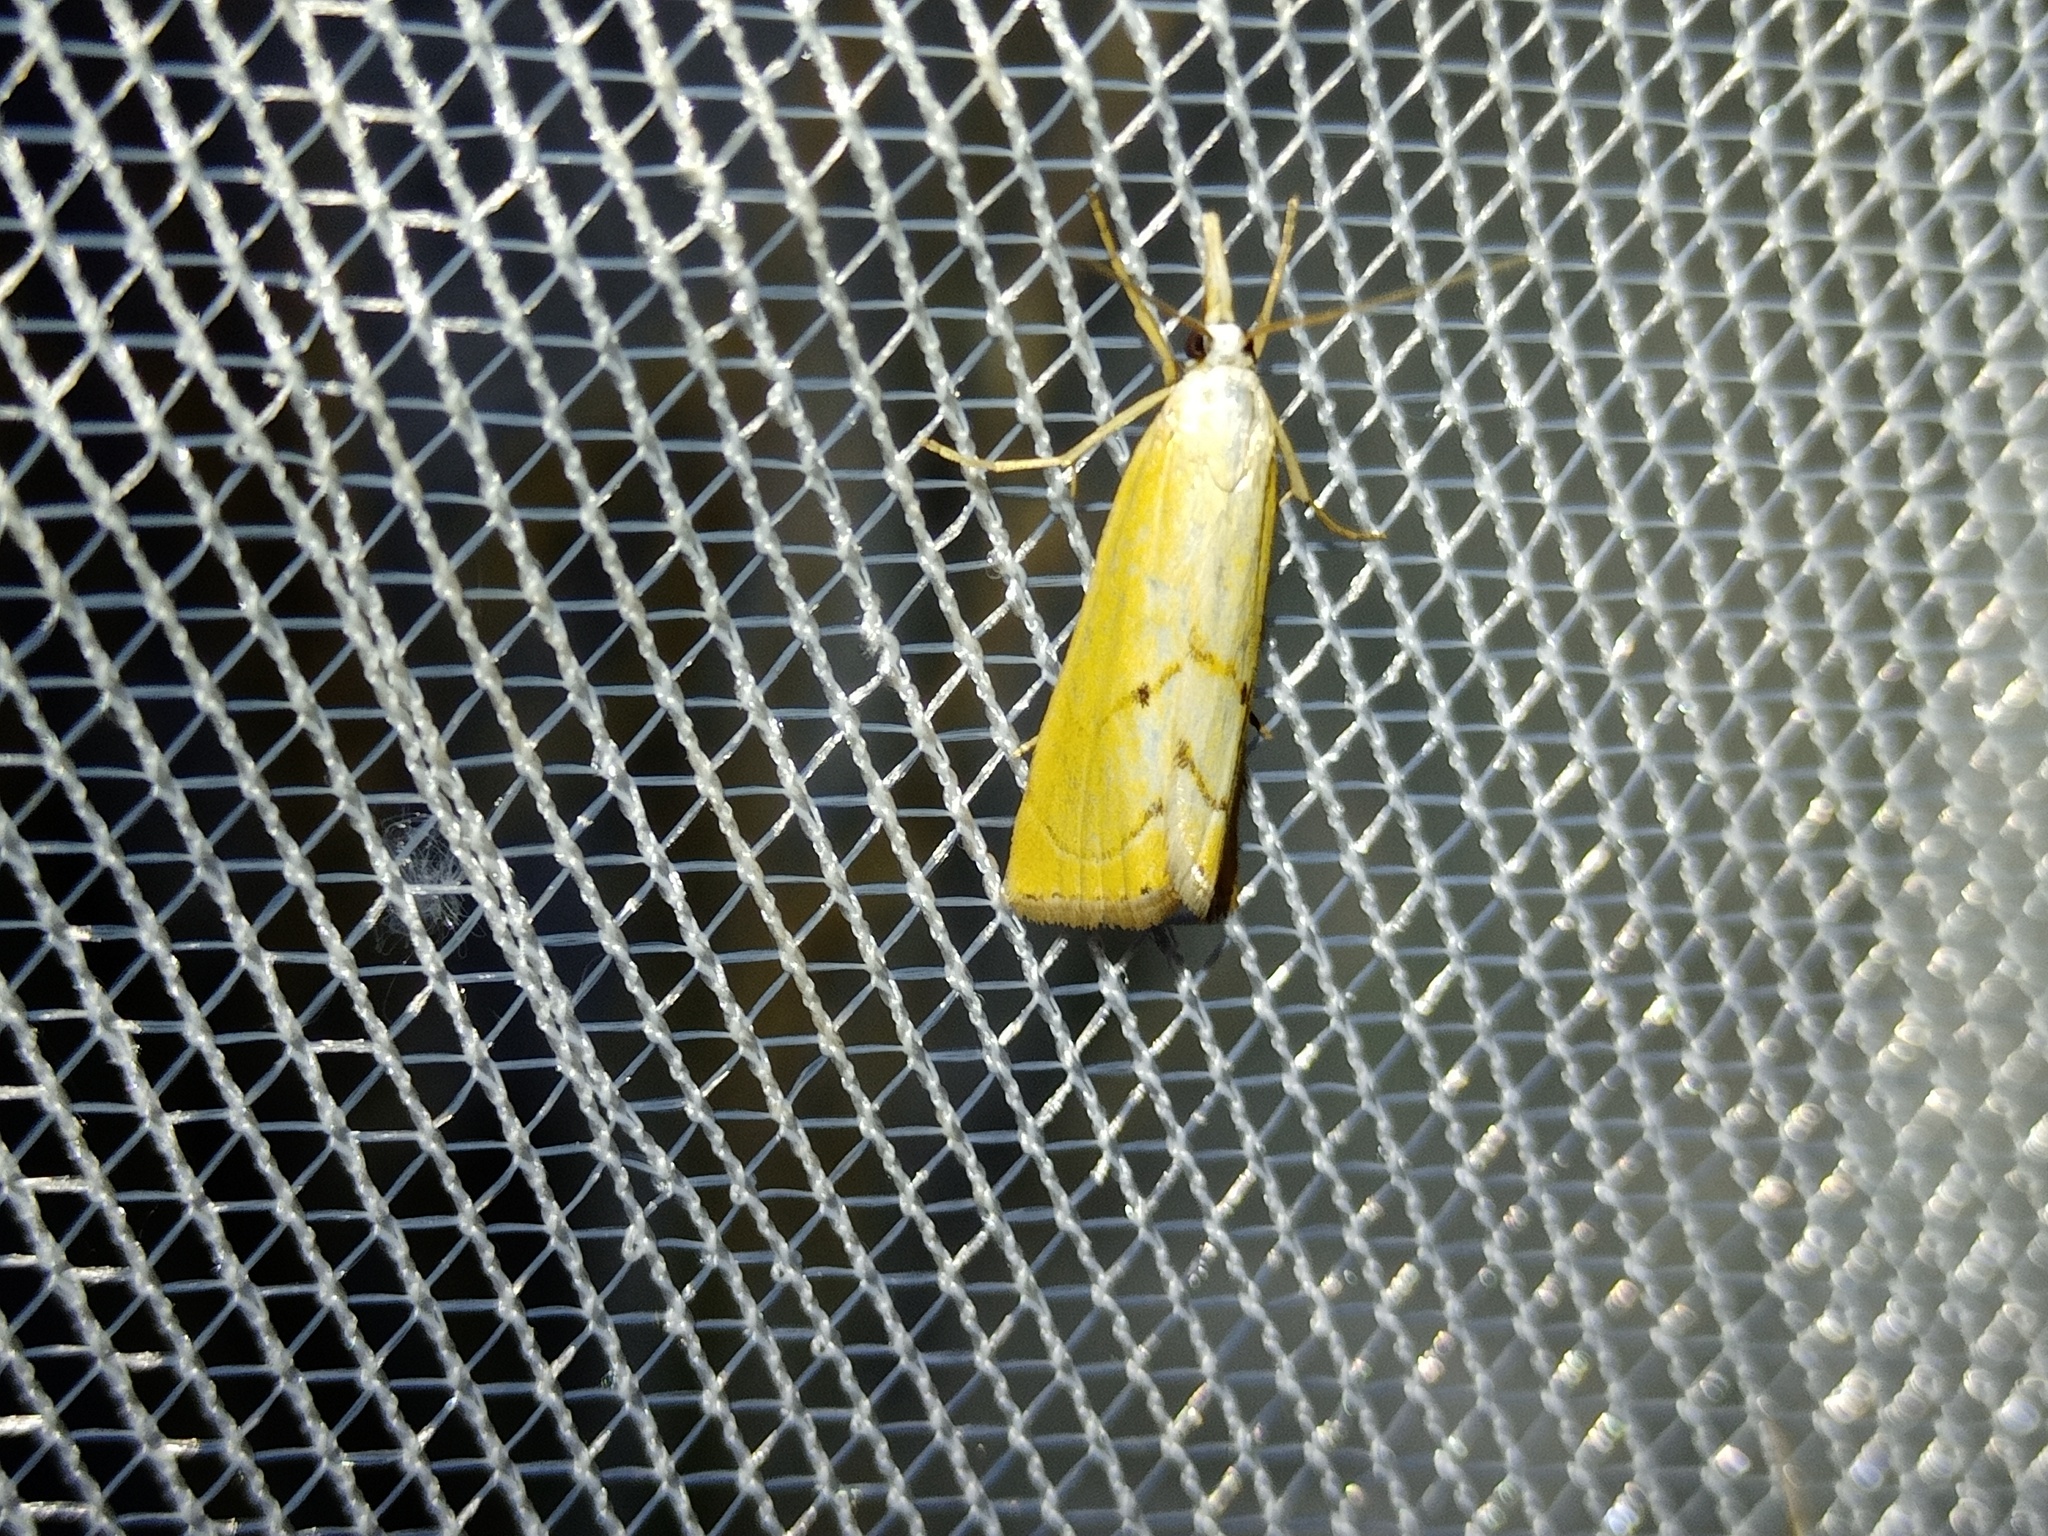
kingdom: Animalia
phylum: Arthropoda
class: Insecta
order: Lepidoptera
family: Crambidae
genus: Xanthocrambus
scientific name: Xanthocrambus saxonellus
